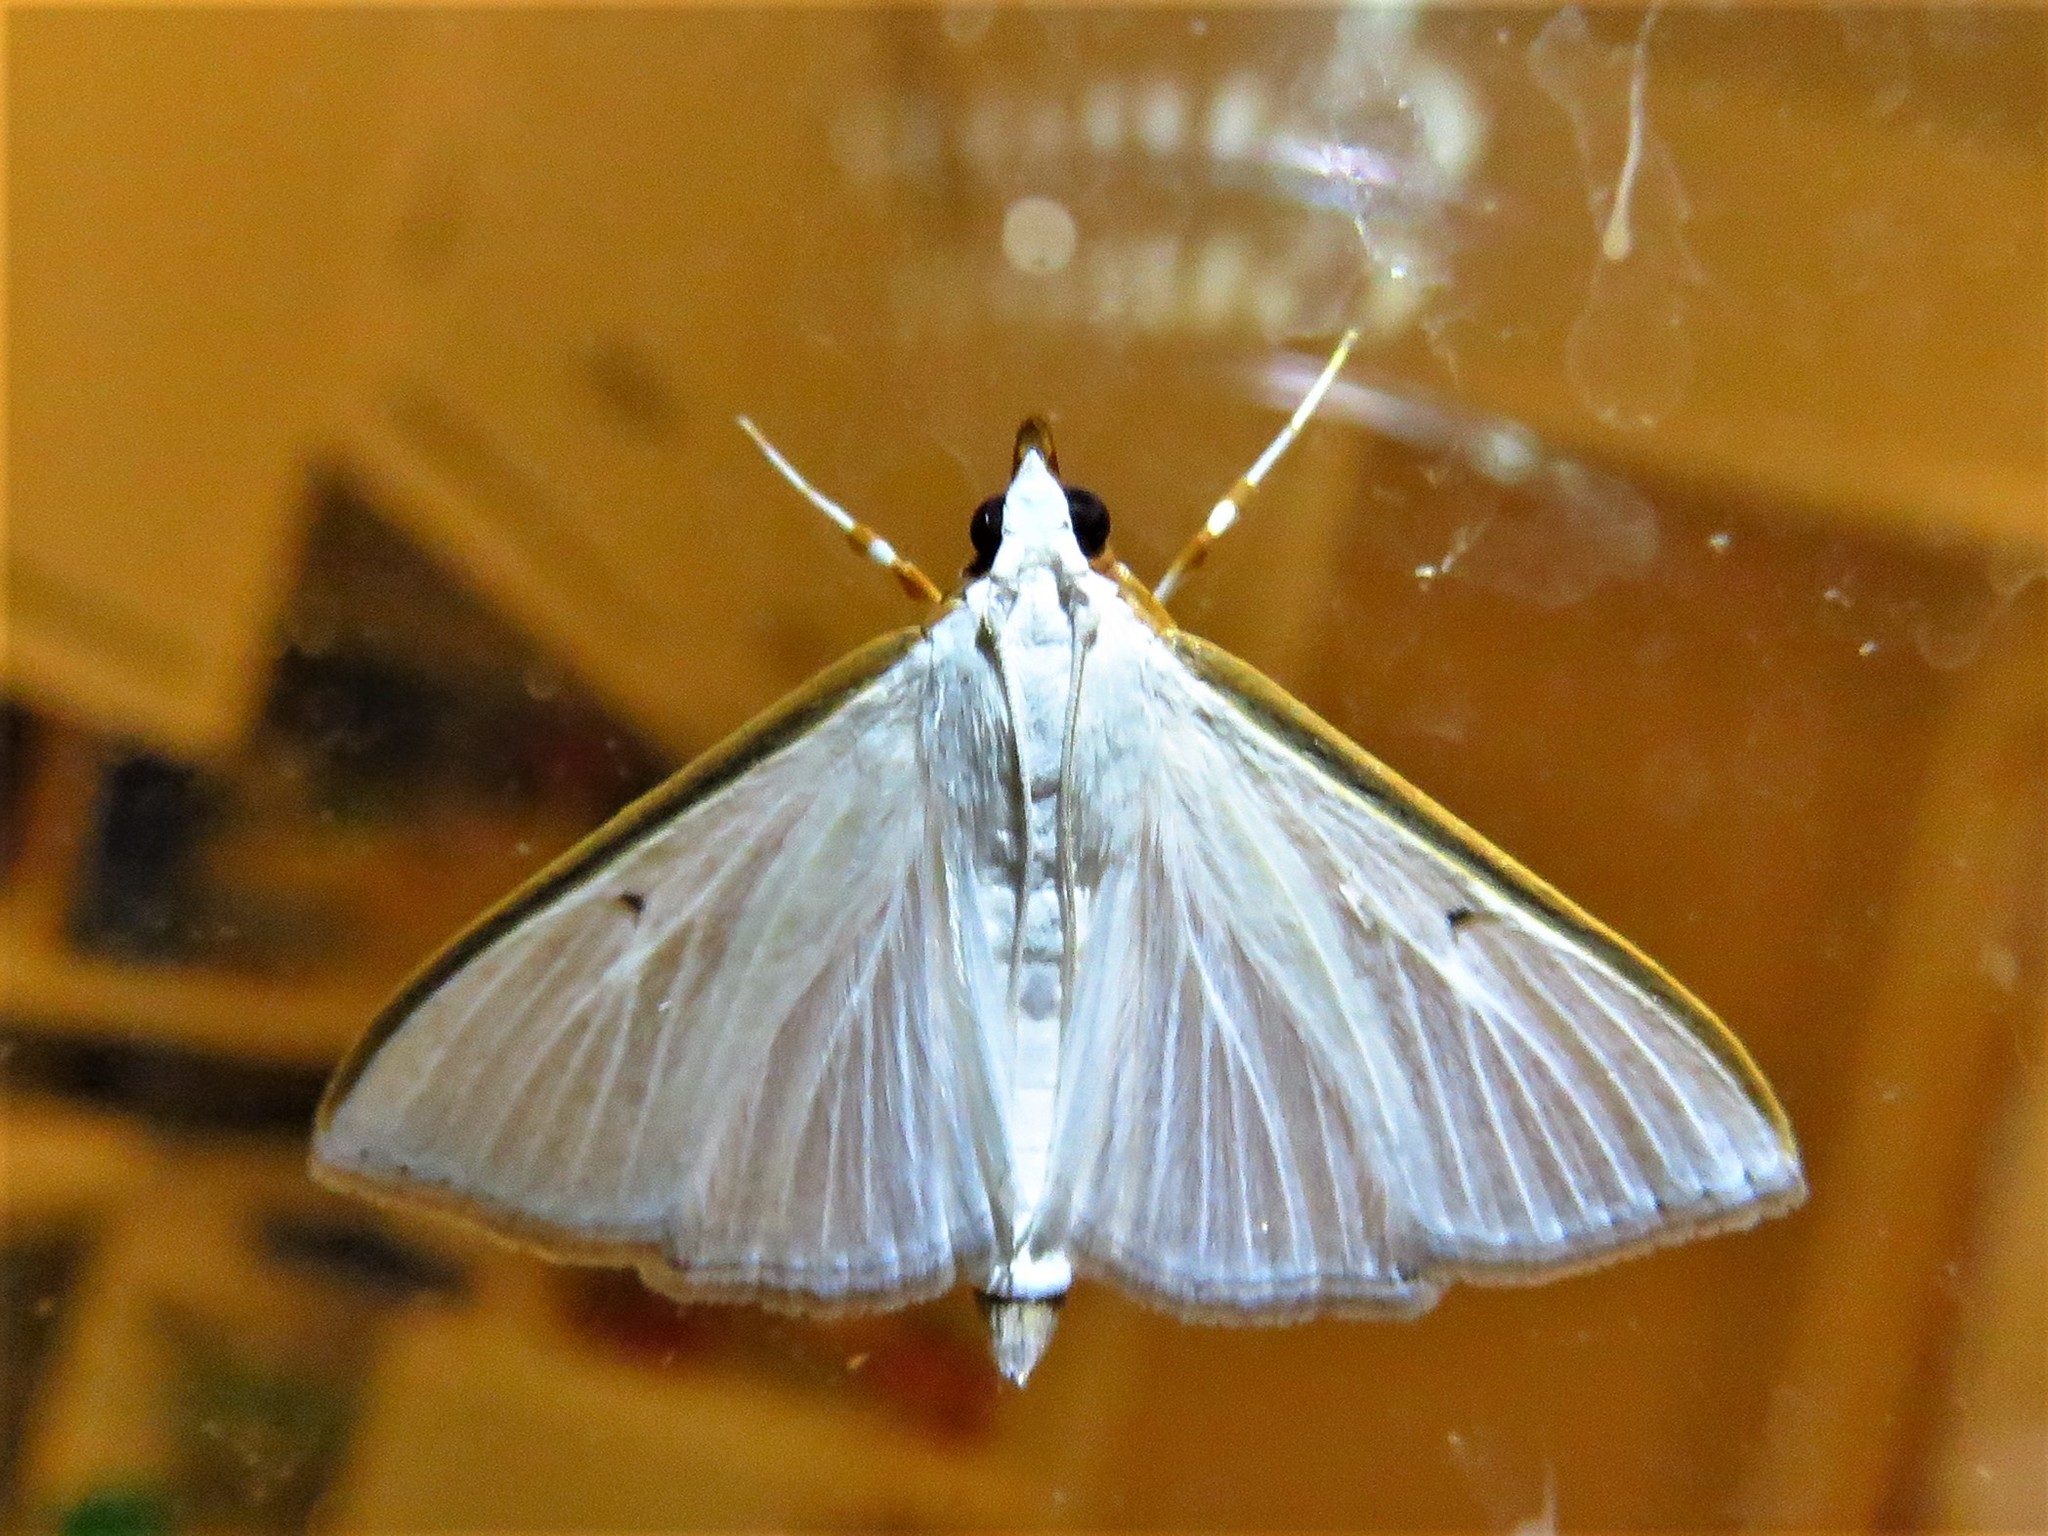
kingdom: Animalia
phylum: Arthropoda
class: Insecta
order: Lepidoptera
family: Crambidae
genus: Diaphania
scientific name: Diaphania costata
